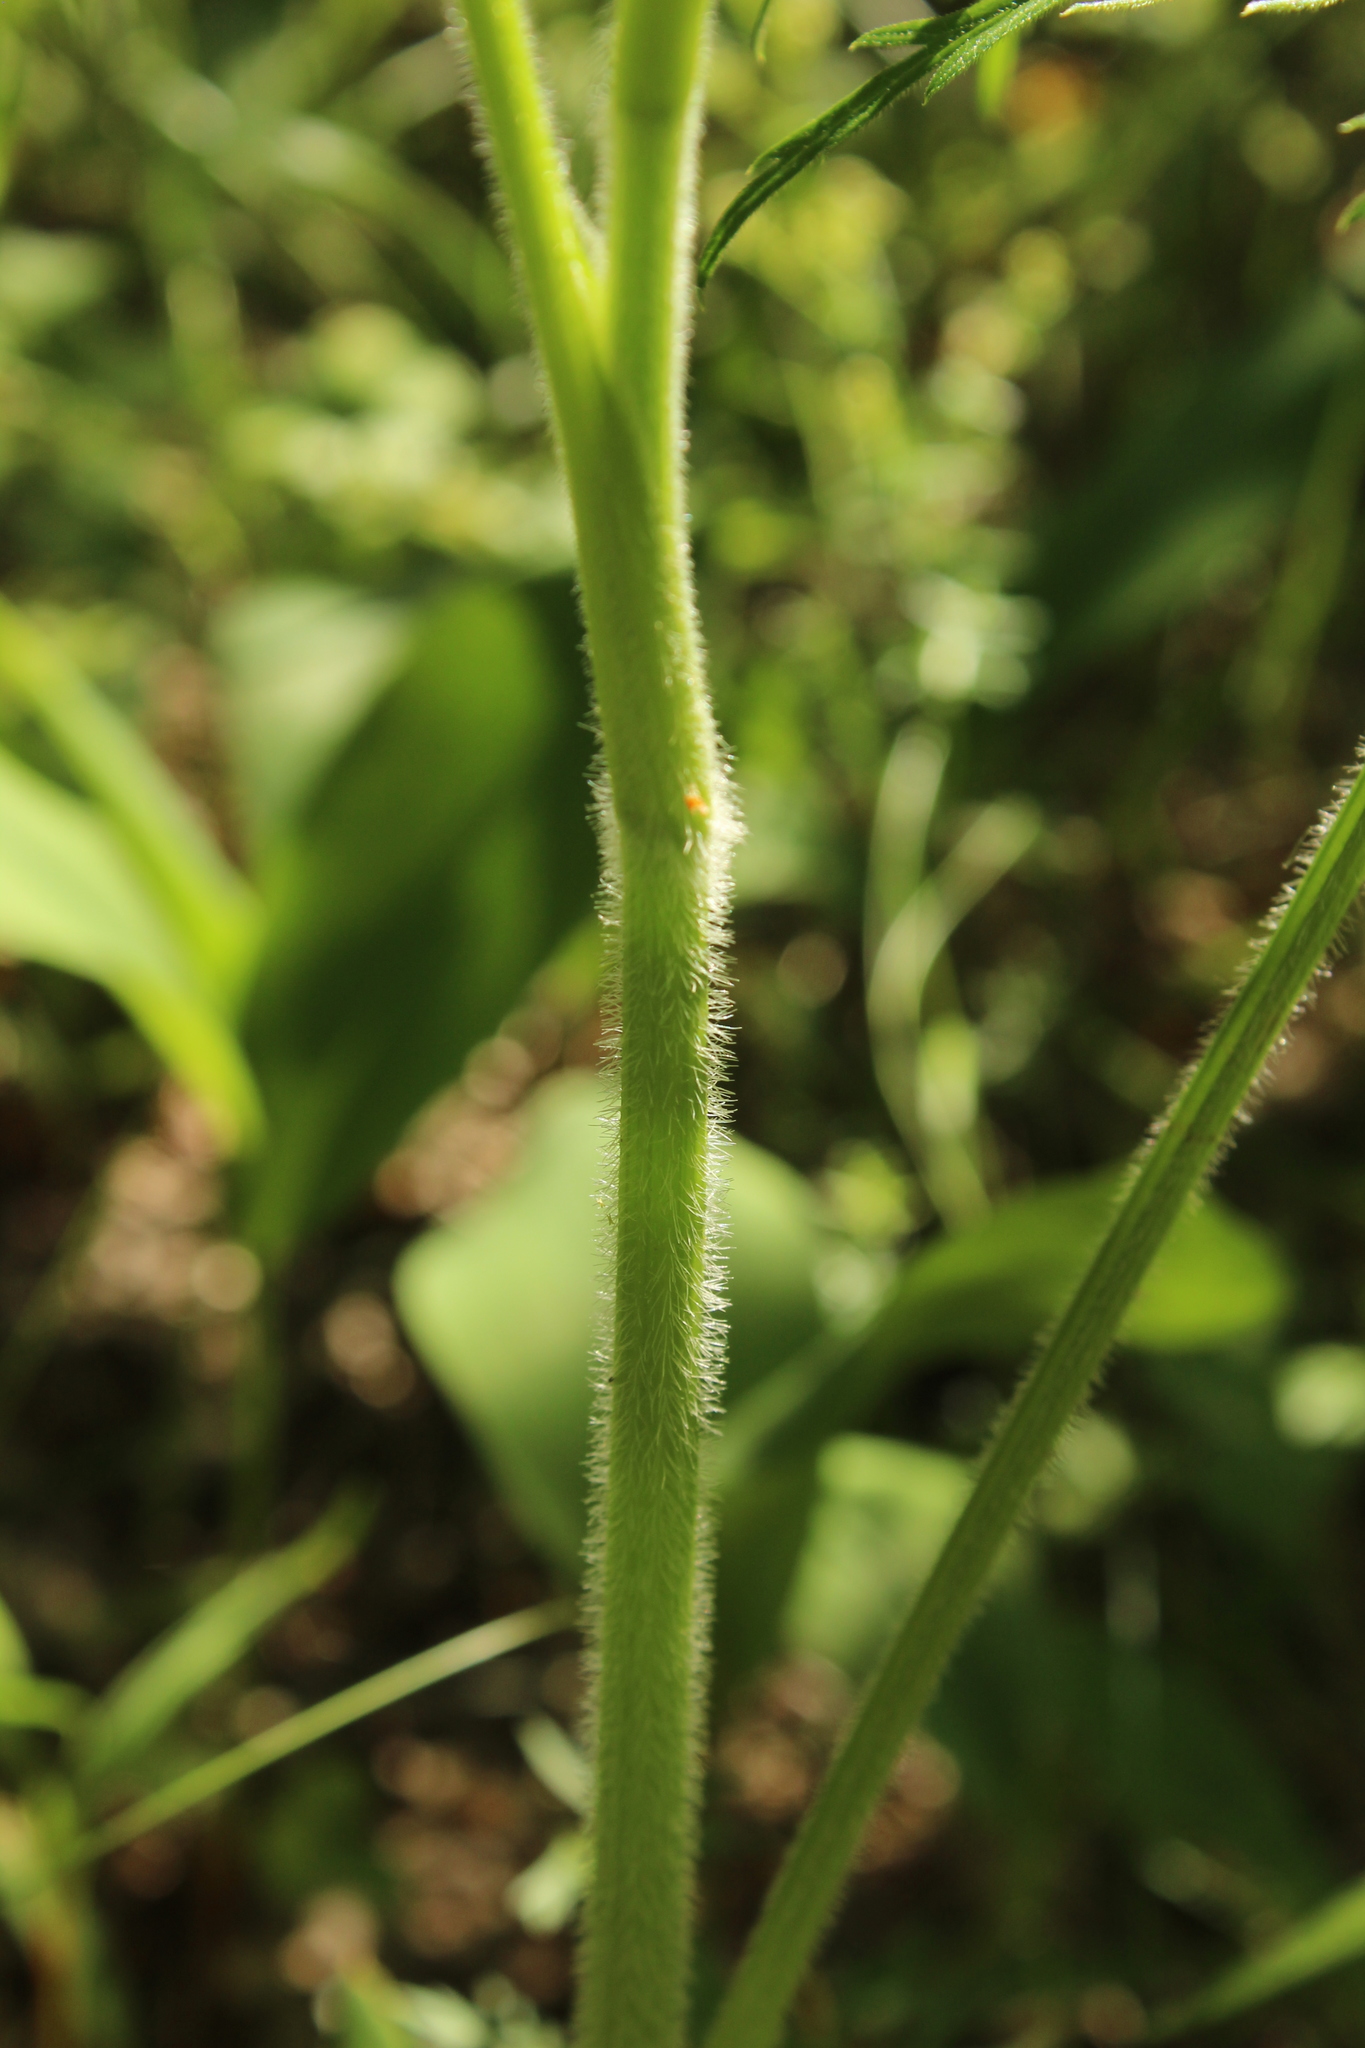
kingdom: Plantae
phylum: Tracheophyta
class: Magnoliopsida
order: Apiales
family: Apiaceae
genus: Silphiodaucus
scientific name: Silphiodaucus prutenicus
